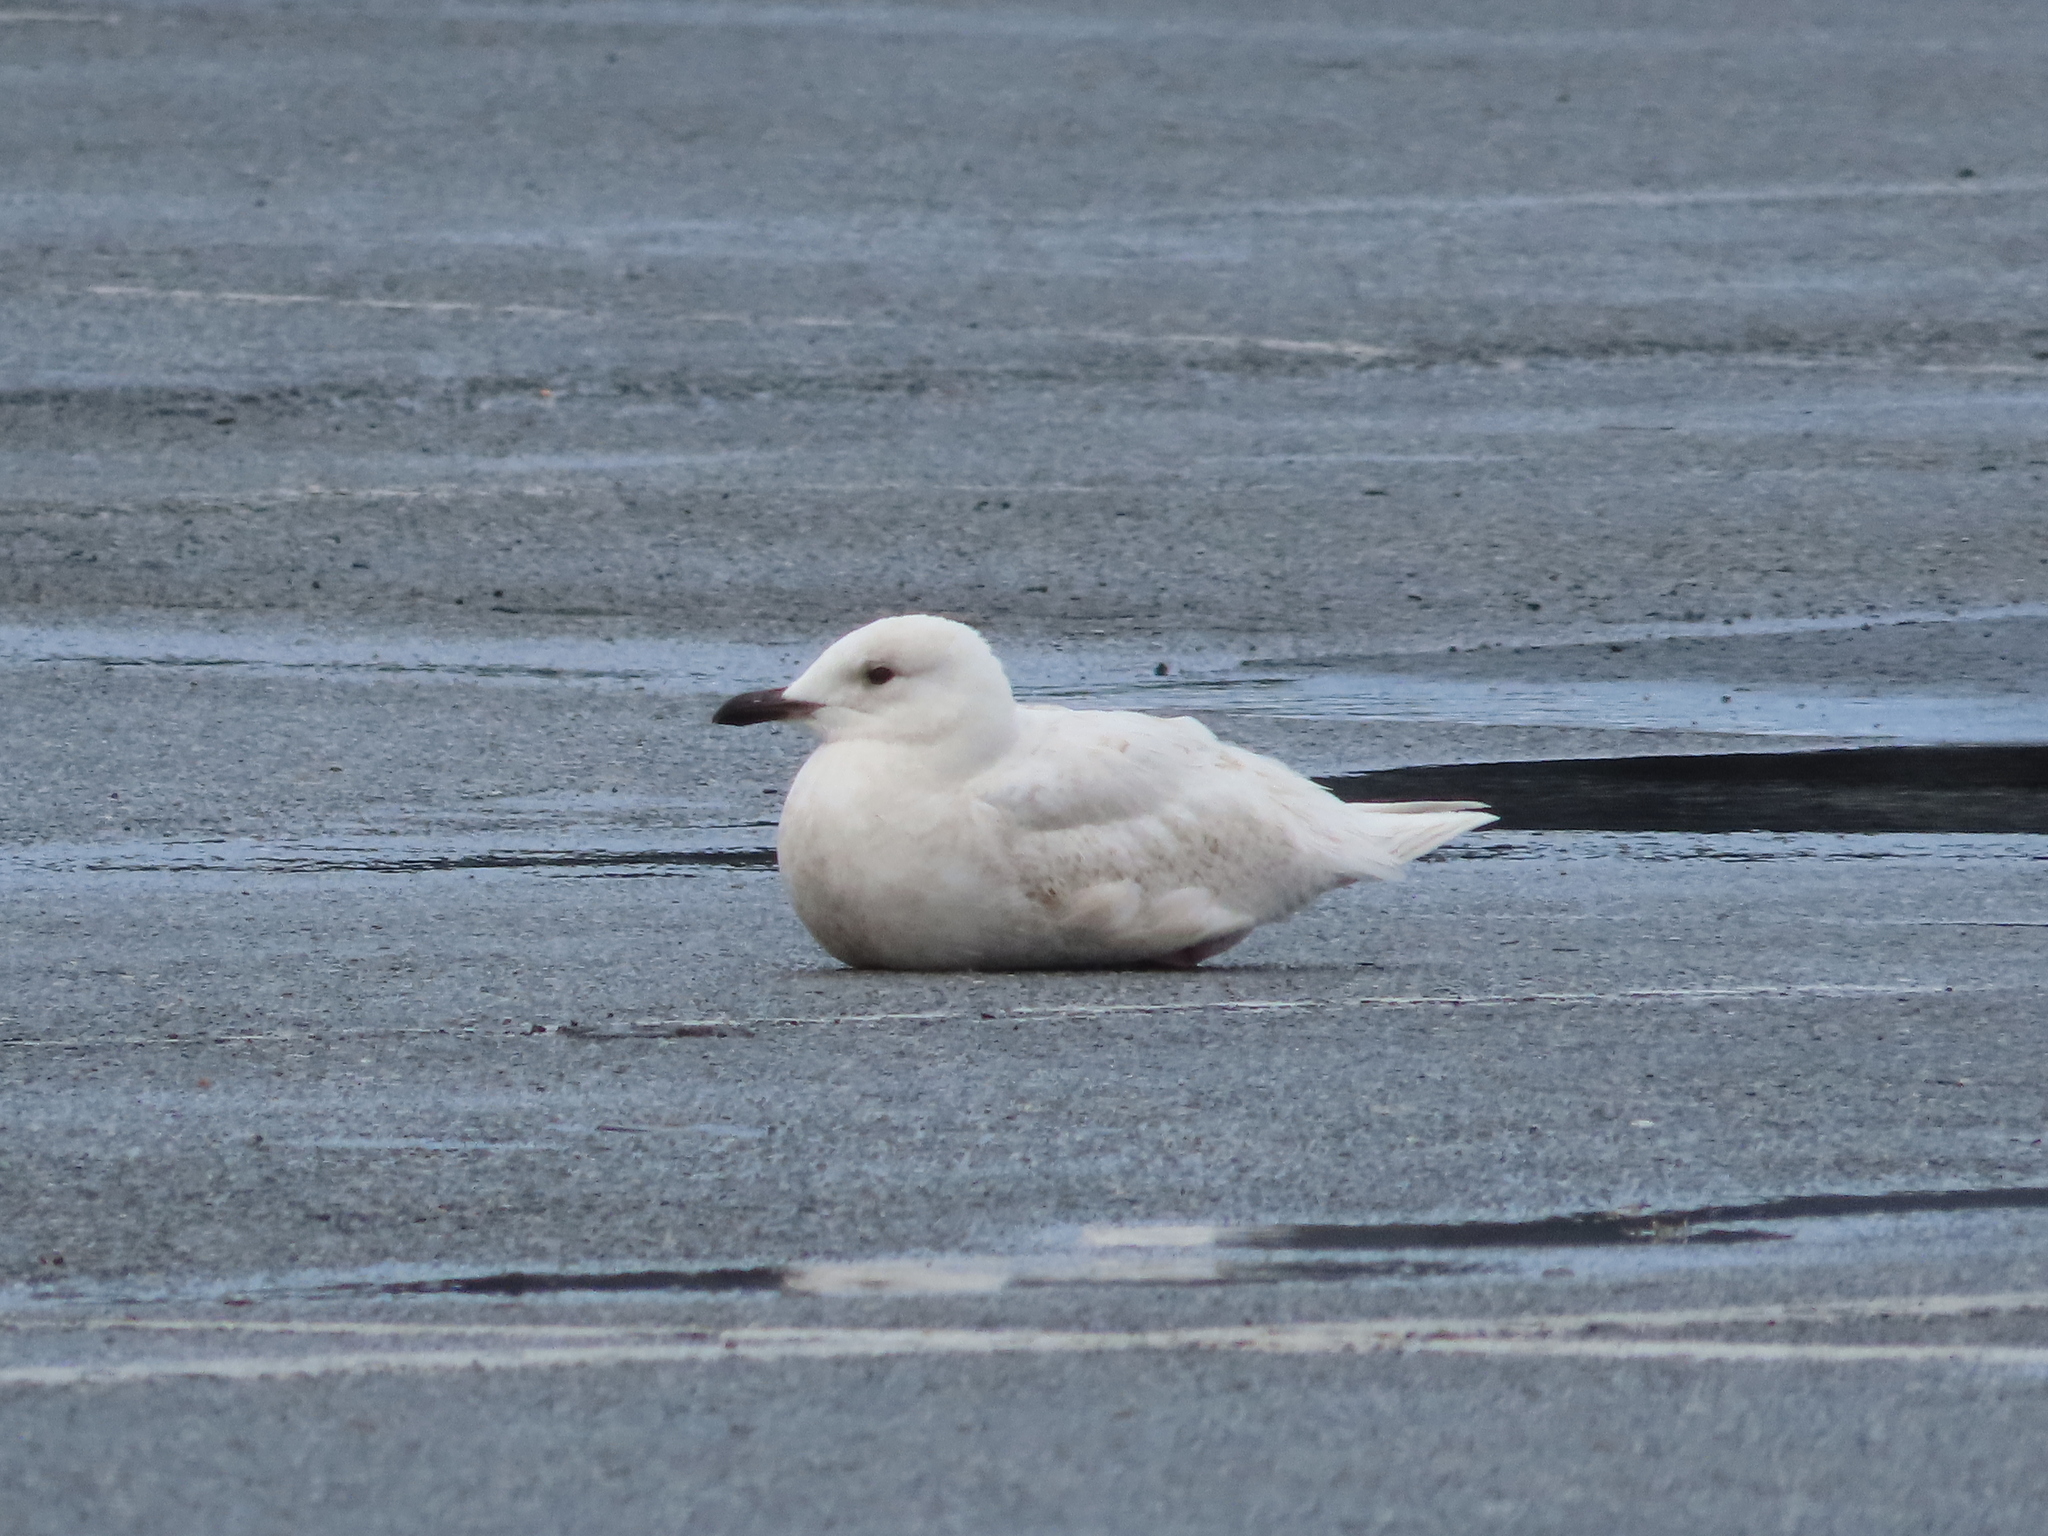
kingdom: Animalia
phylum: Chordata
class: Aves
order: Charadriiformes
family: Laridae
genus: Larus
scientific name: Larus glaucoides
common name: Iceland gull
